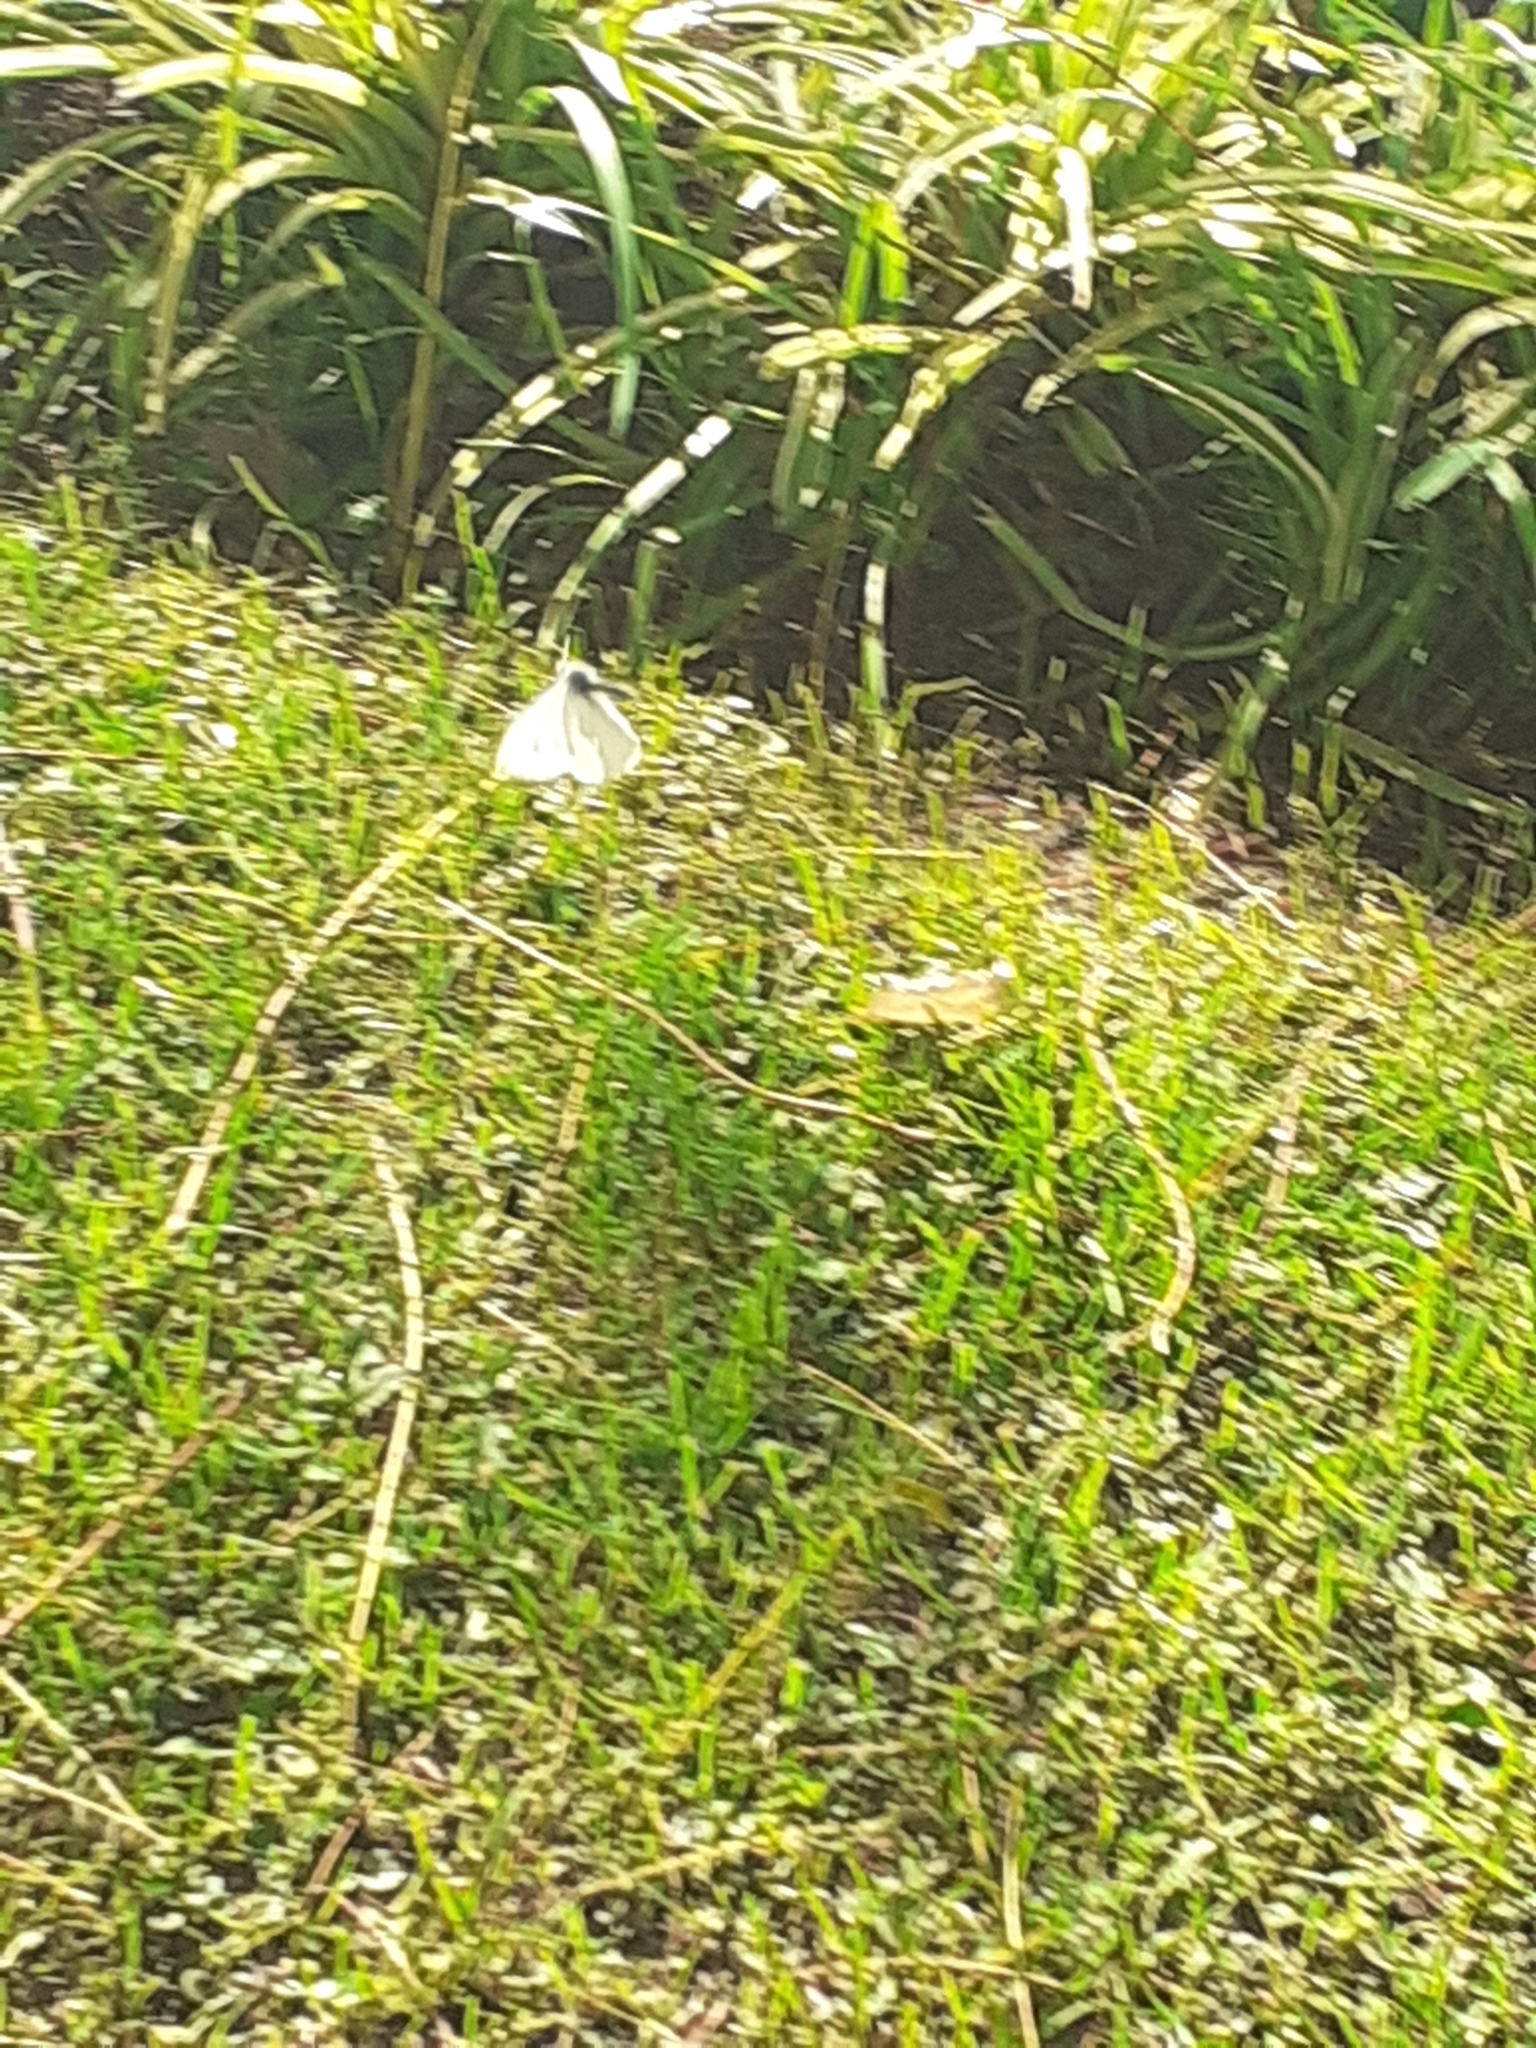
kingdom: Animalia
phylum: Arthropoda
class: Insecta
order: Lepidoptera
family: Pieridae
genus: Pieris
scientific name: Pieris rapae
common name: Small white
